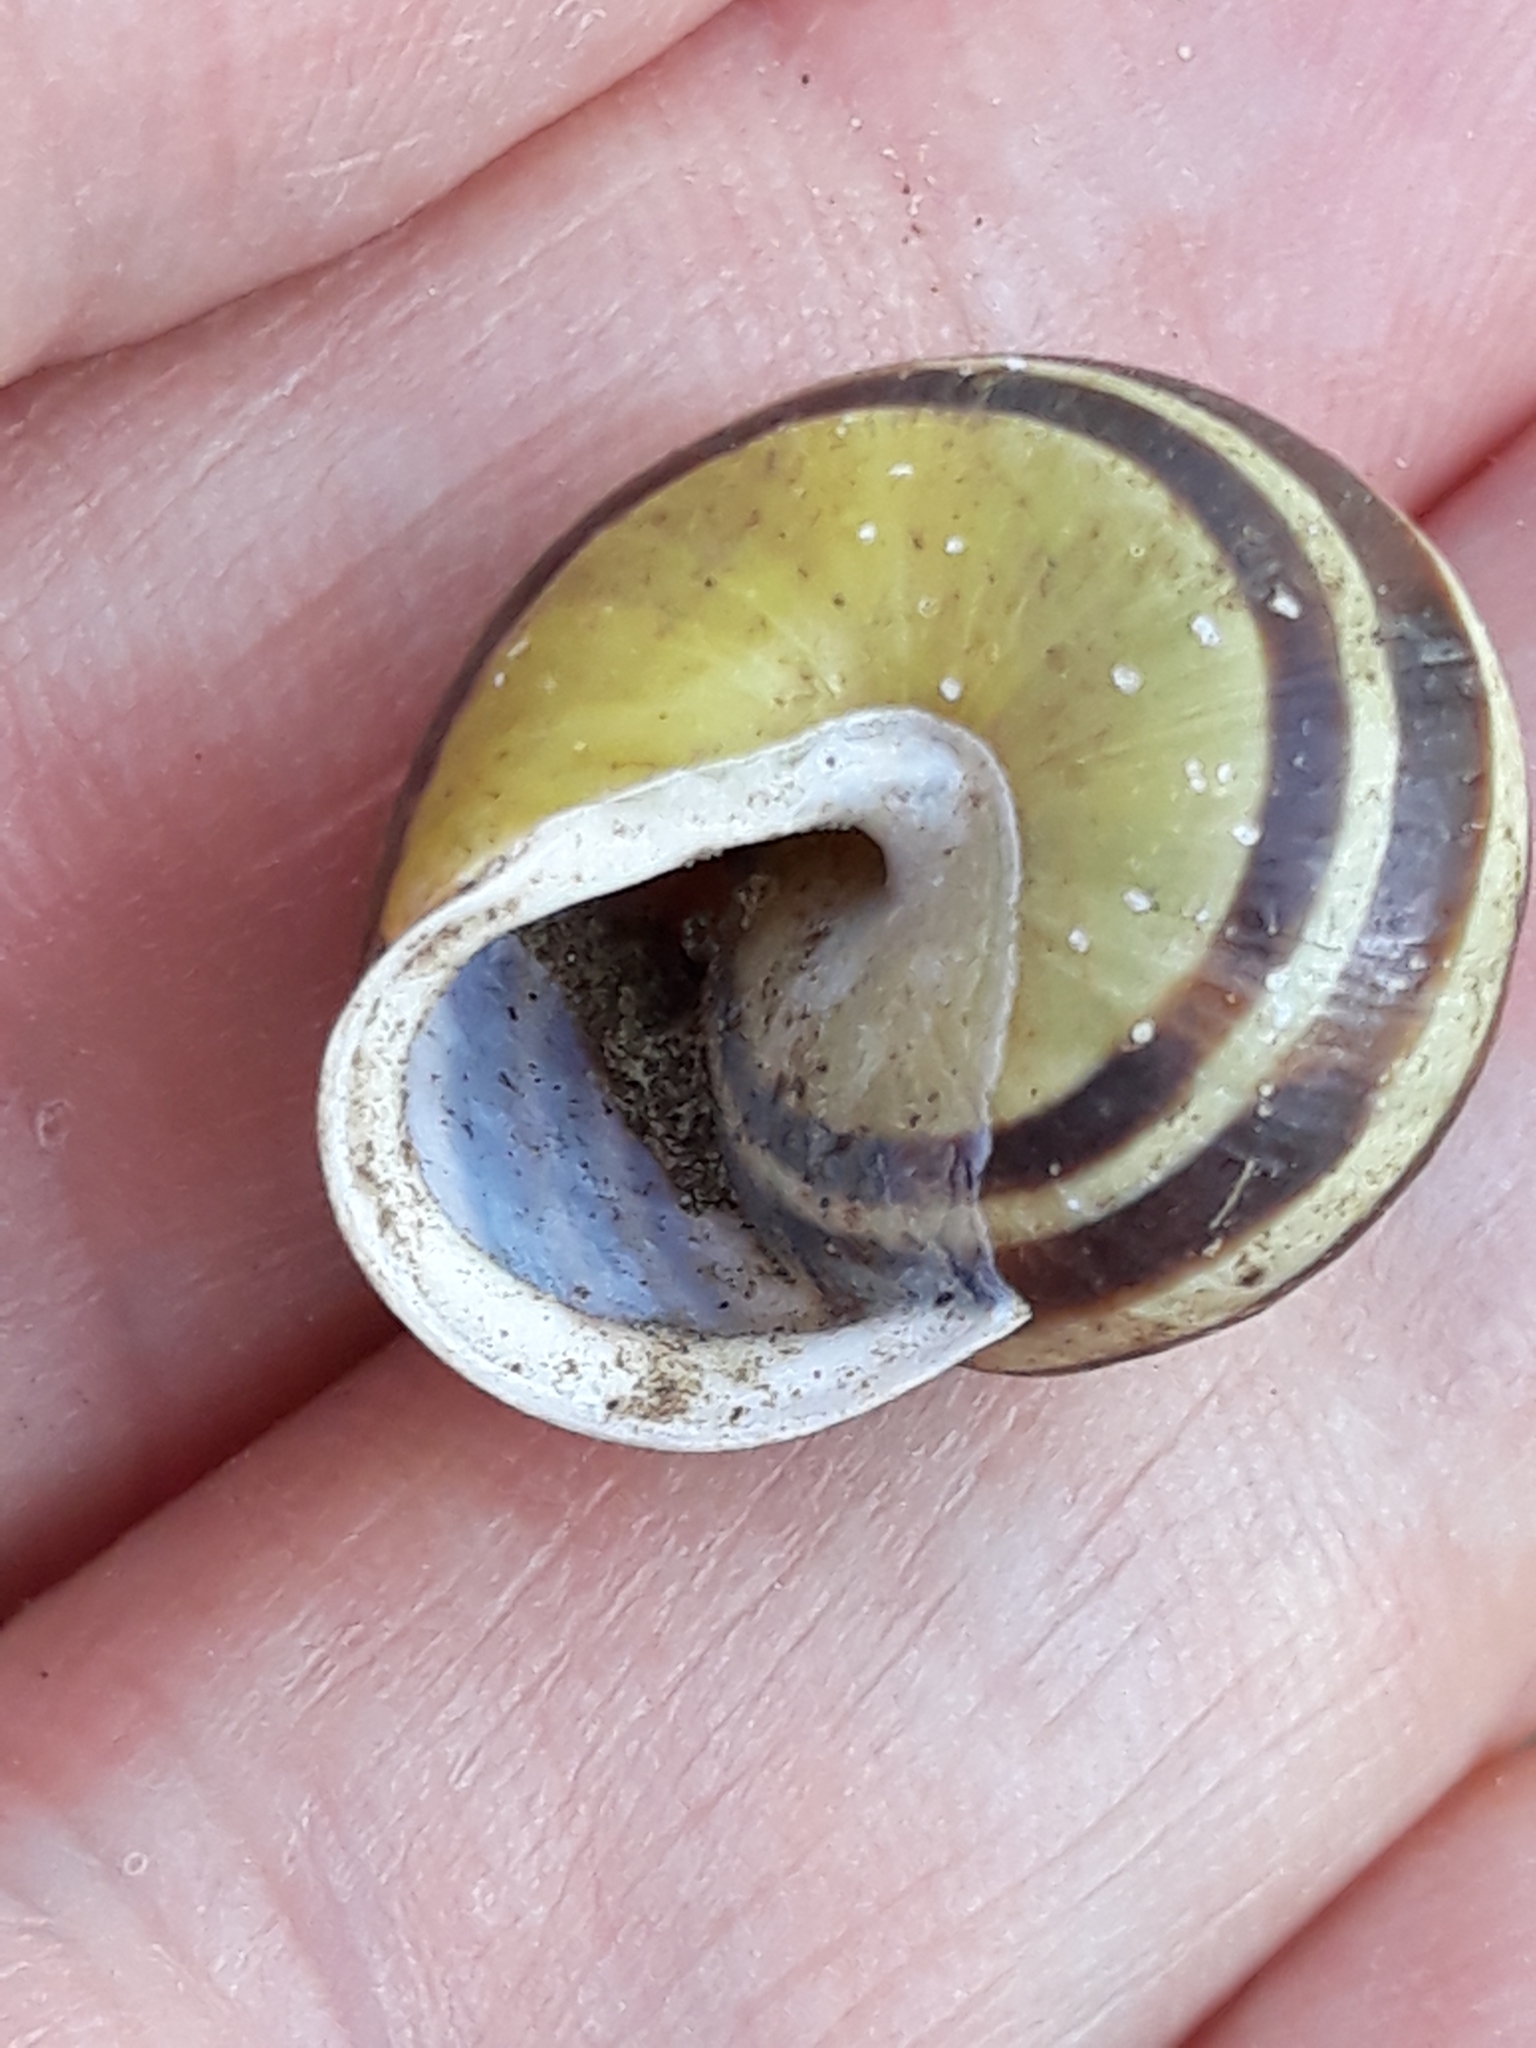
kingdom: Animalia
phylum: Mollusca
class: Gastropoda
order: Stylommatophora
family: Helicidae
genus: Cepaea
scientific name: Cepaea hortensis
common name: White-lip gardensnail
